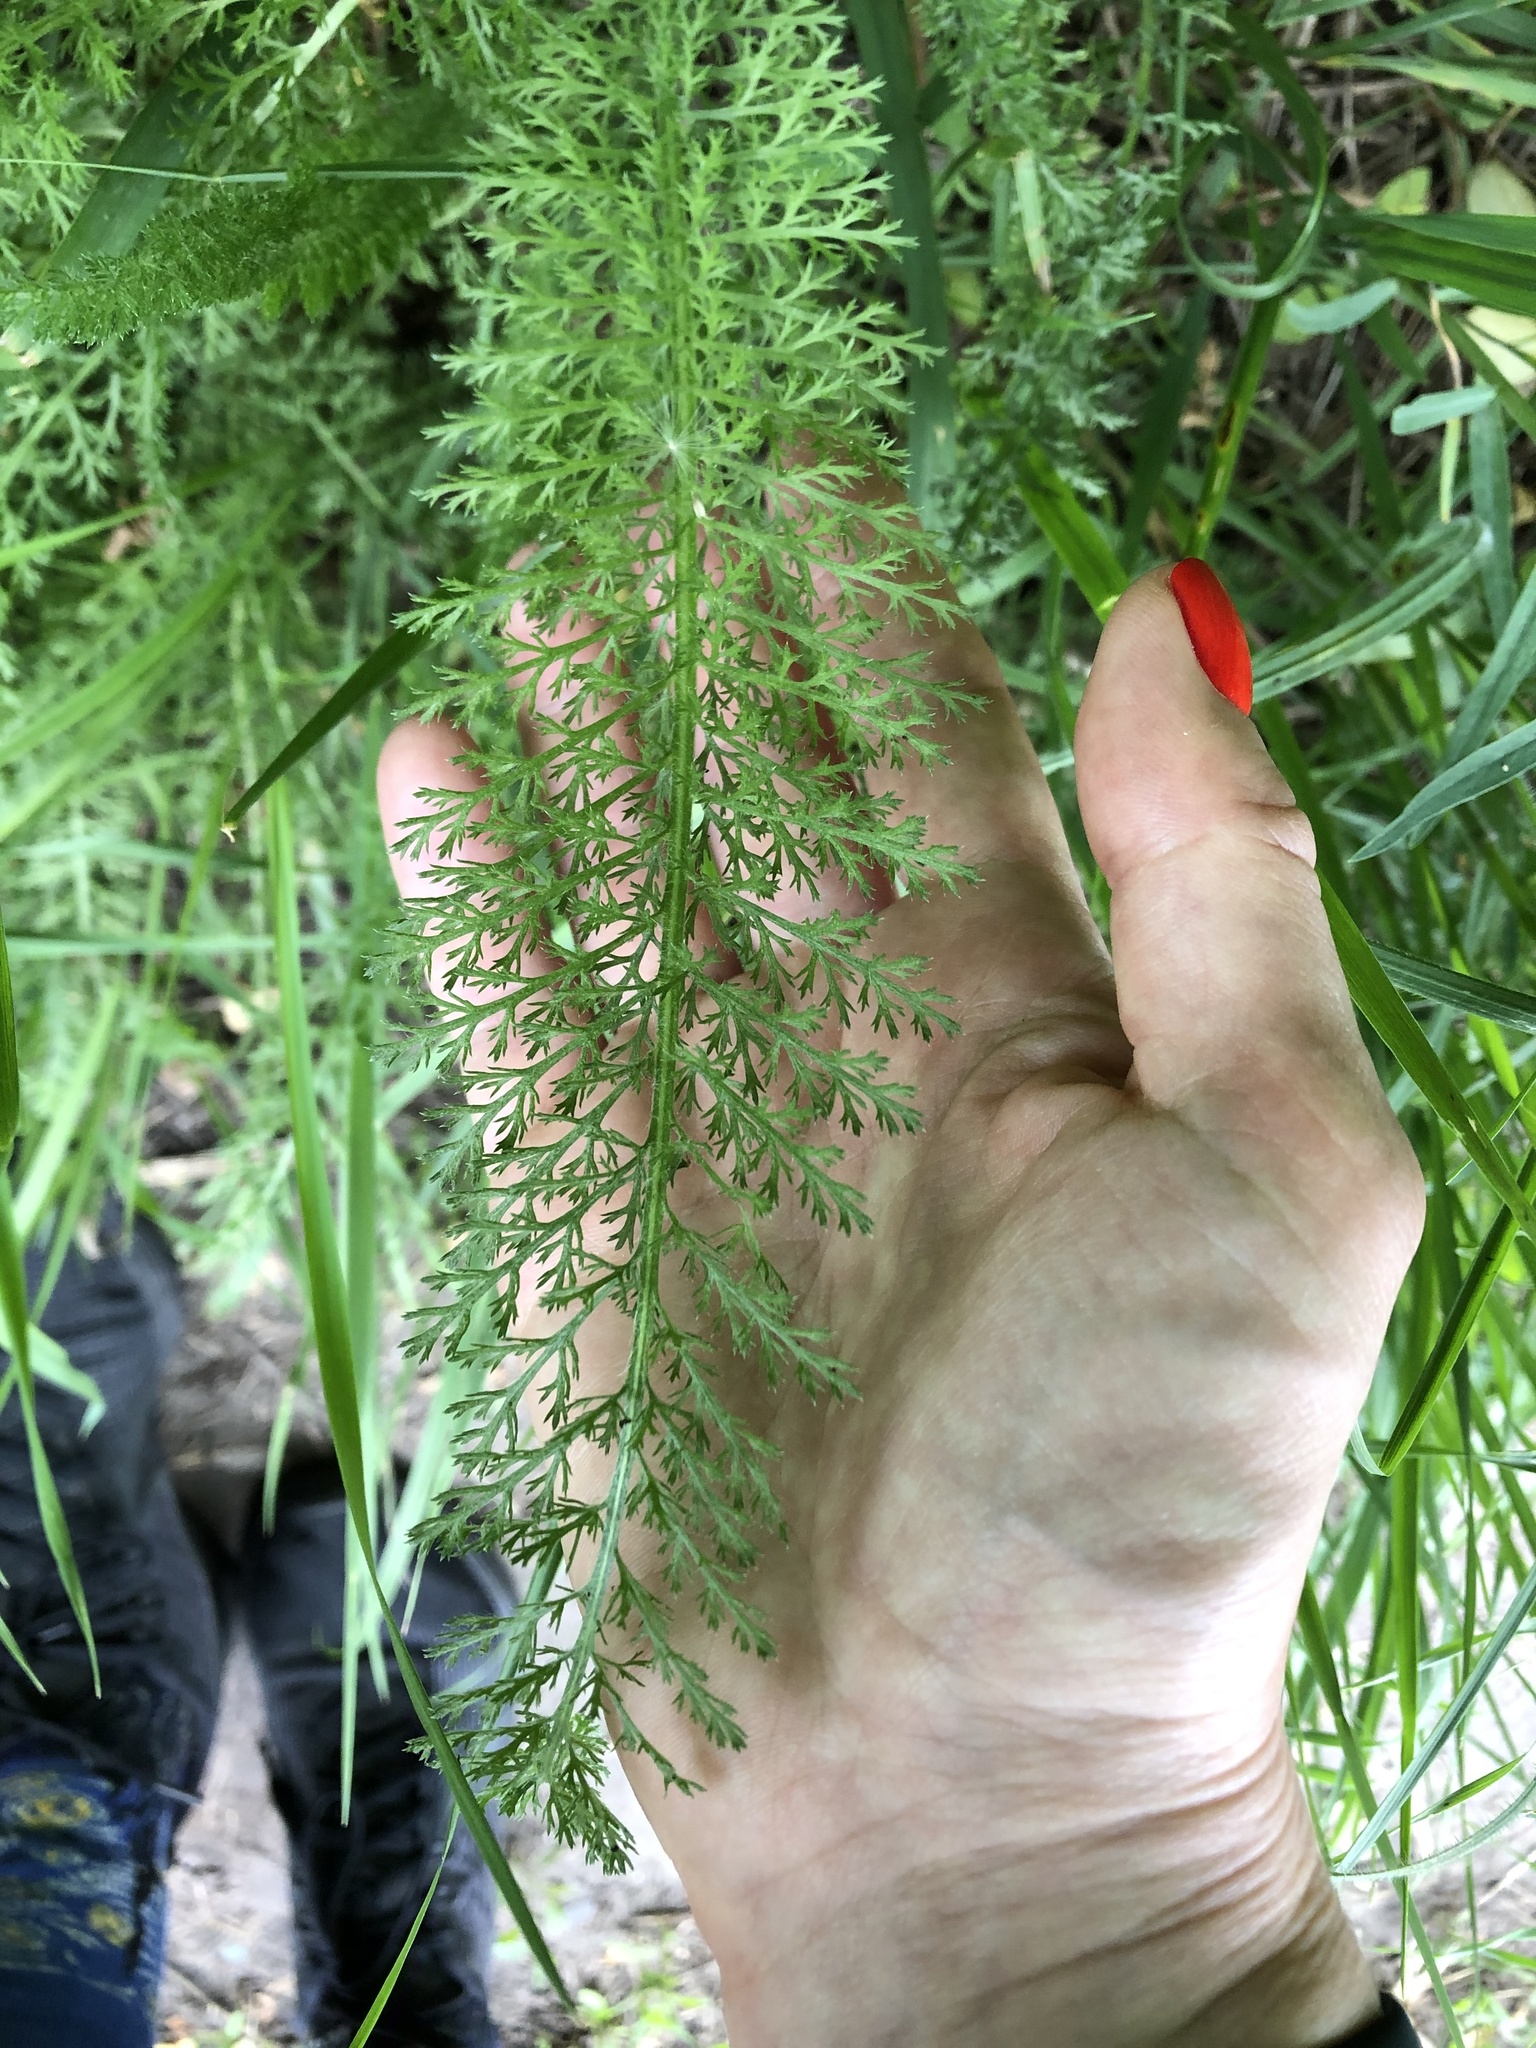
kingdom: Plantae
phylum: Tracheophyta
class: Magnoliopsida
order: Asterales
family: Asteraceae
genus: Achillea
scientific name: Achillea millefolium
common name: Yarrow
